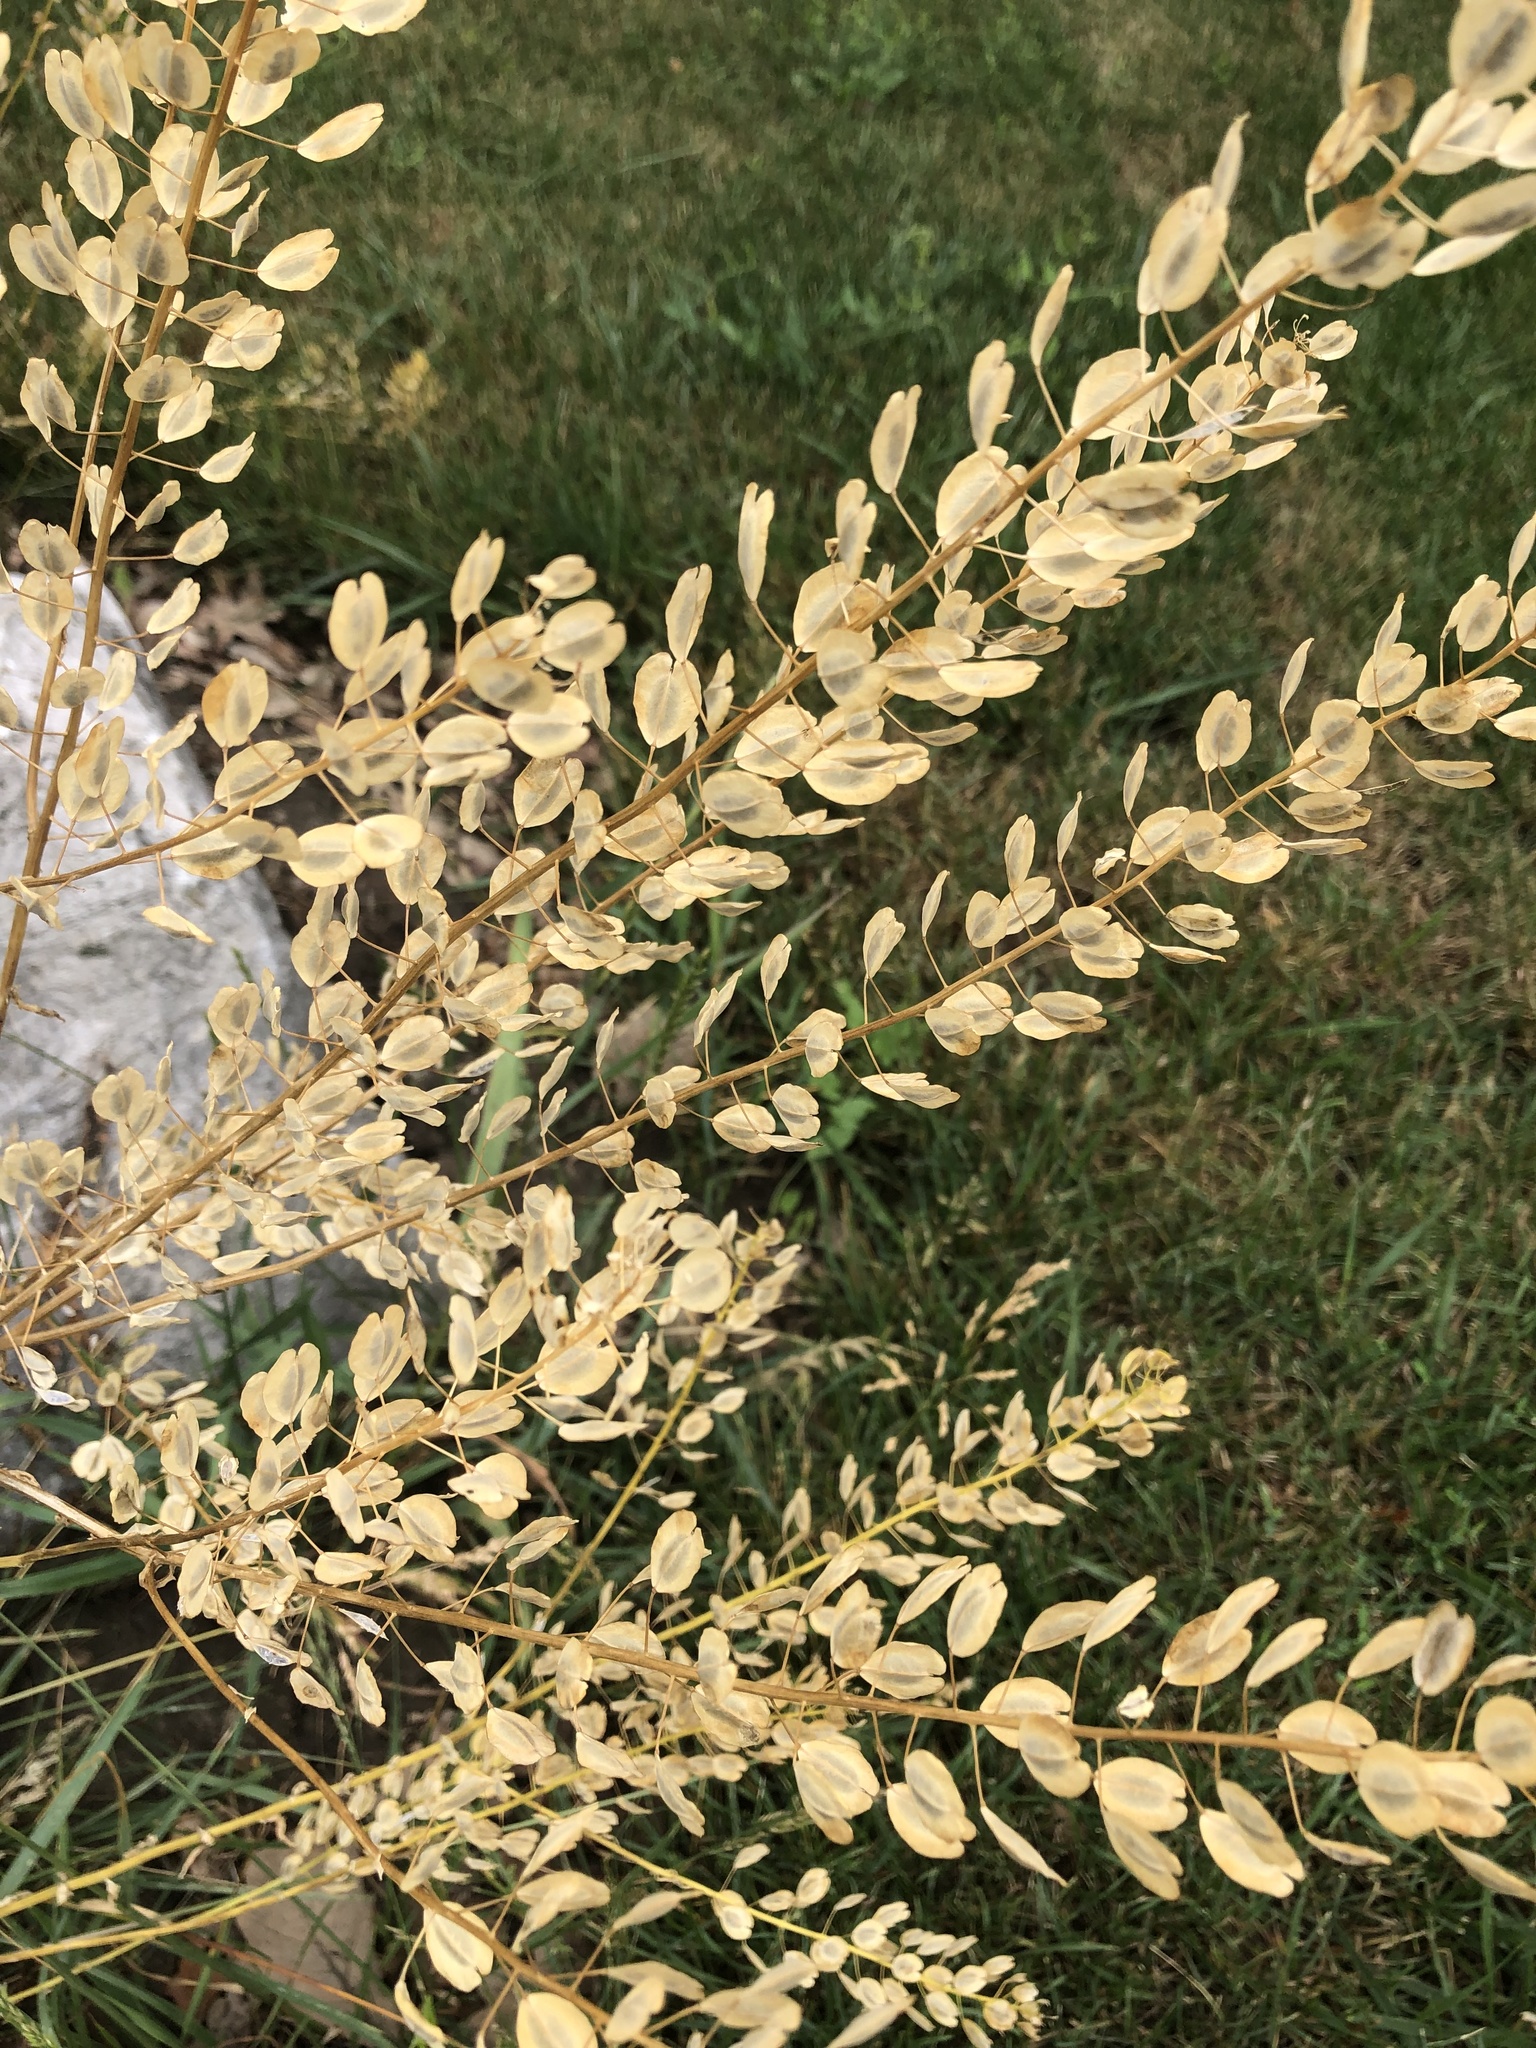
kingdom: Plantae
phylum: Tracheophyta
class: Magnoliopsida
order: Brassicales
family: Brassicaceae
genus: Thlaspi
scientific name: Thlaspi arvense
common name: Field pennycress
